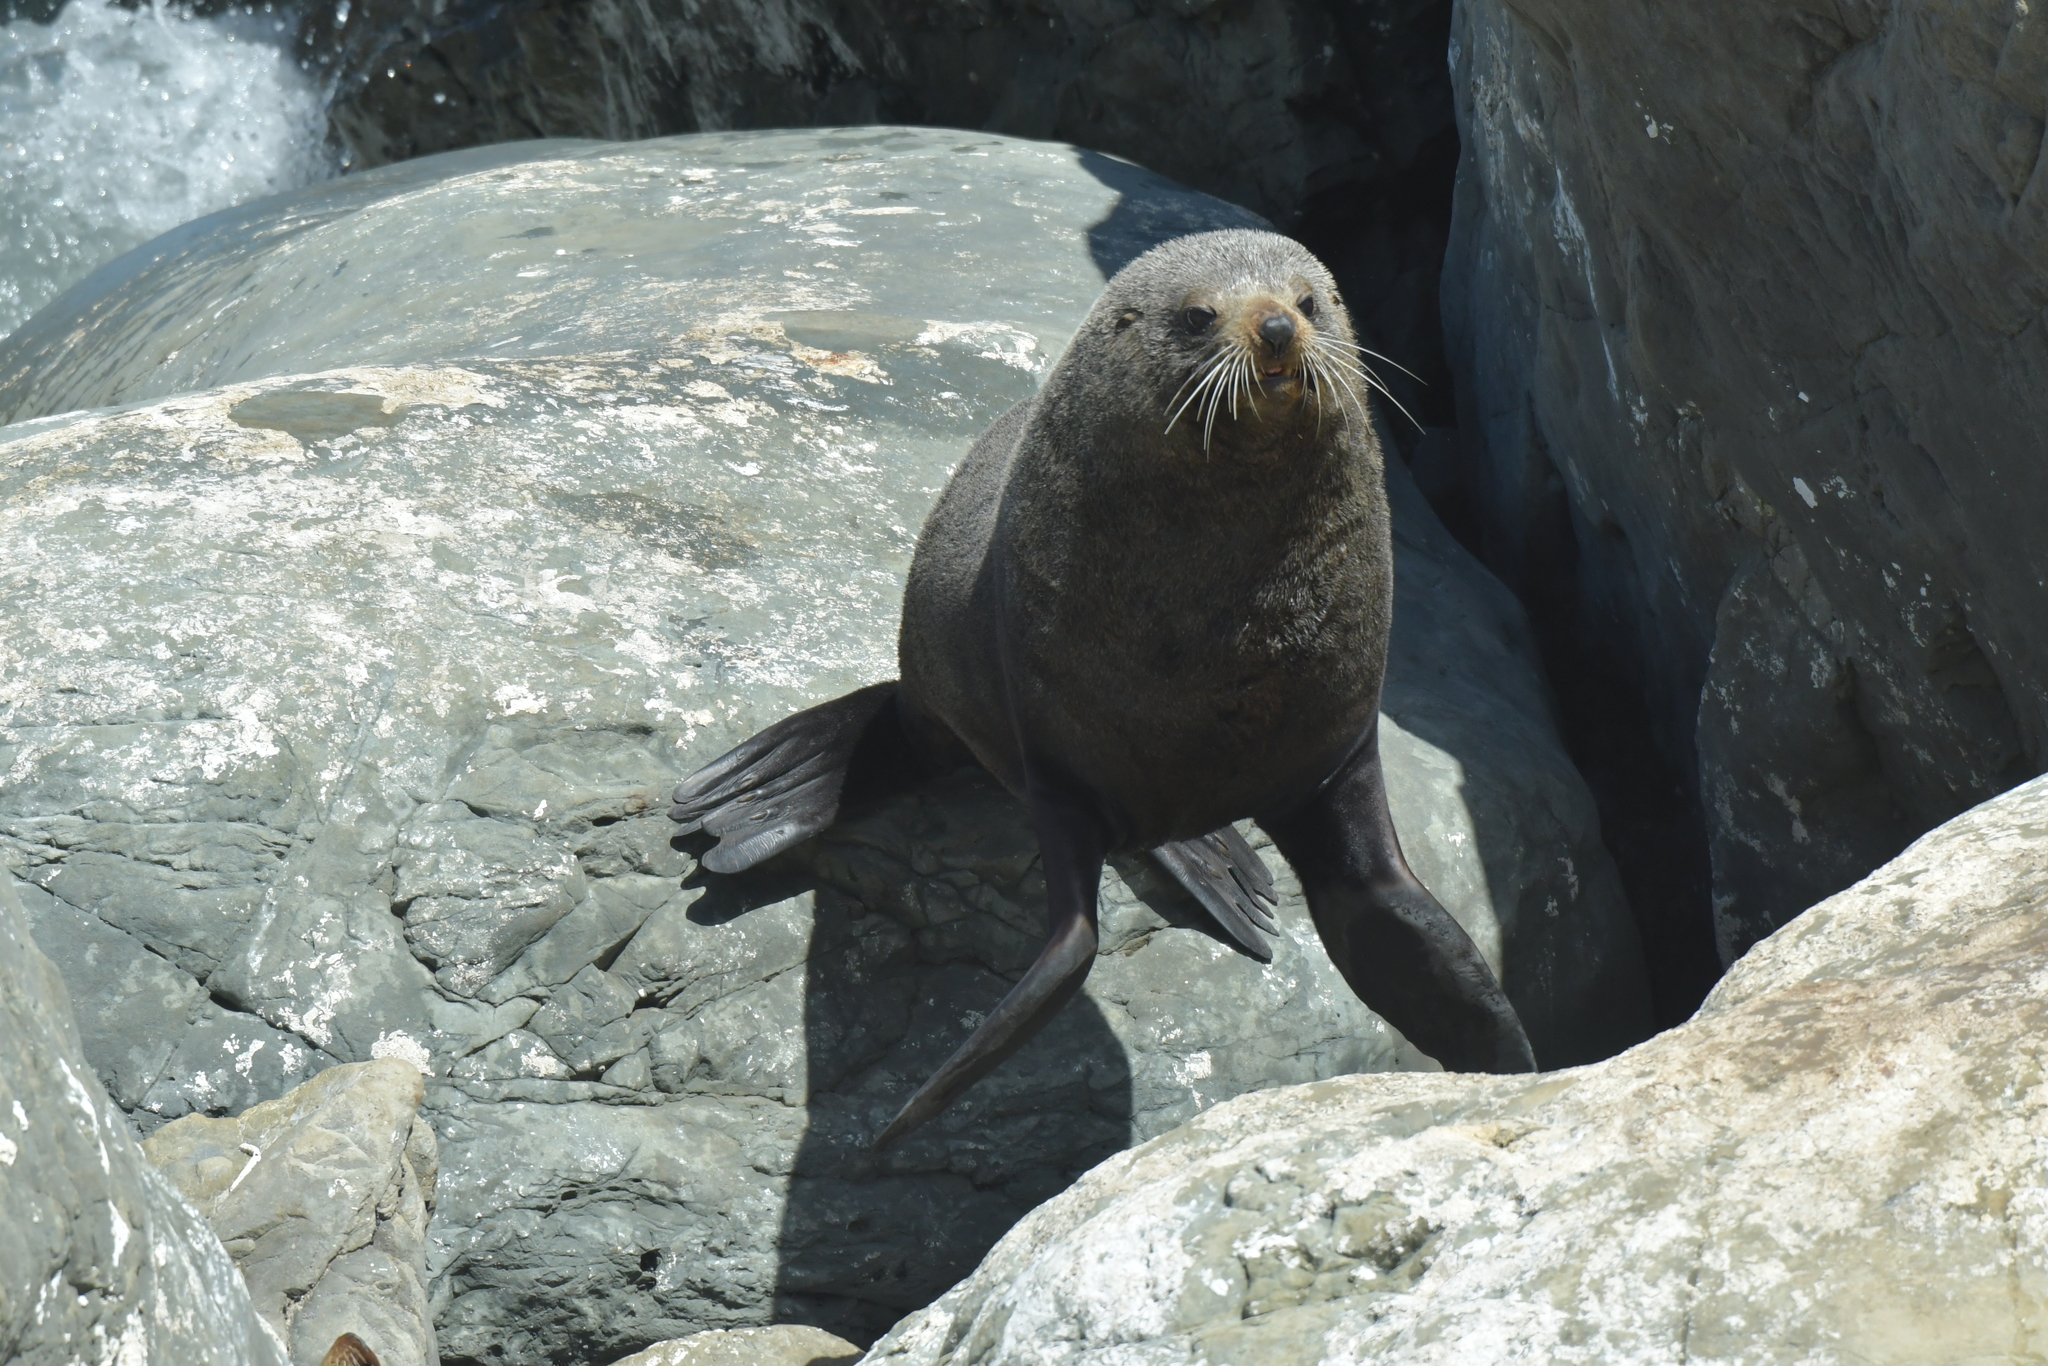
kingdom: Animalia
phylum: Chordata
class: Mammalia
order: Carnivora
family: Otariidae
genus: Arctocephalus
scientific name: Arctocephalus forsteri
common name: New zealand fur seal
